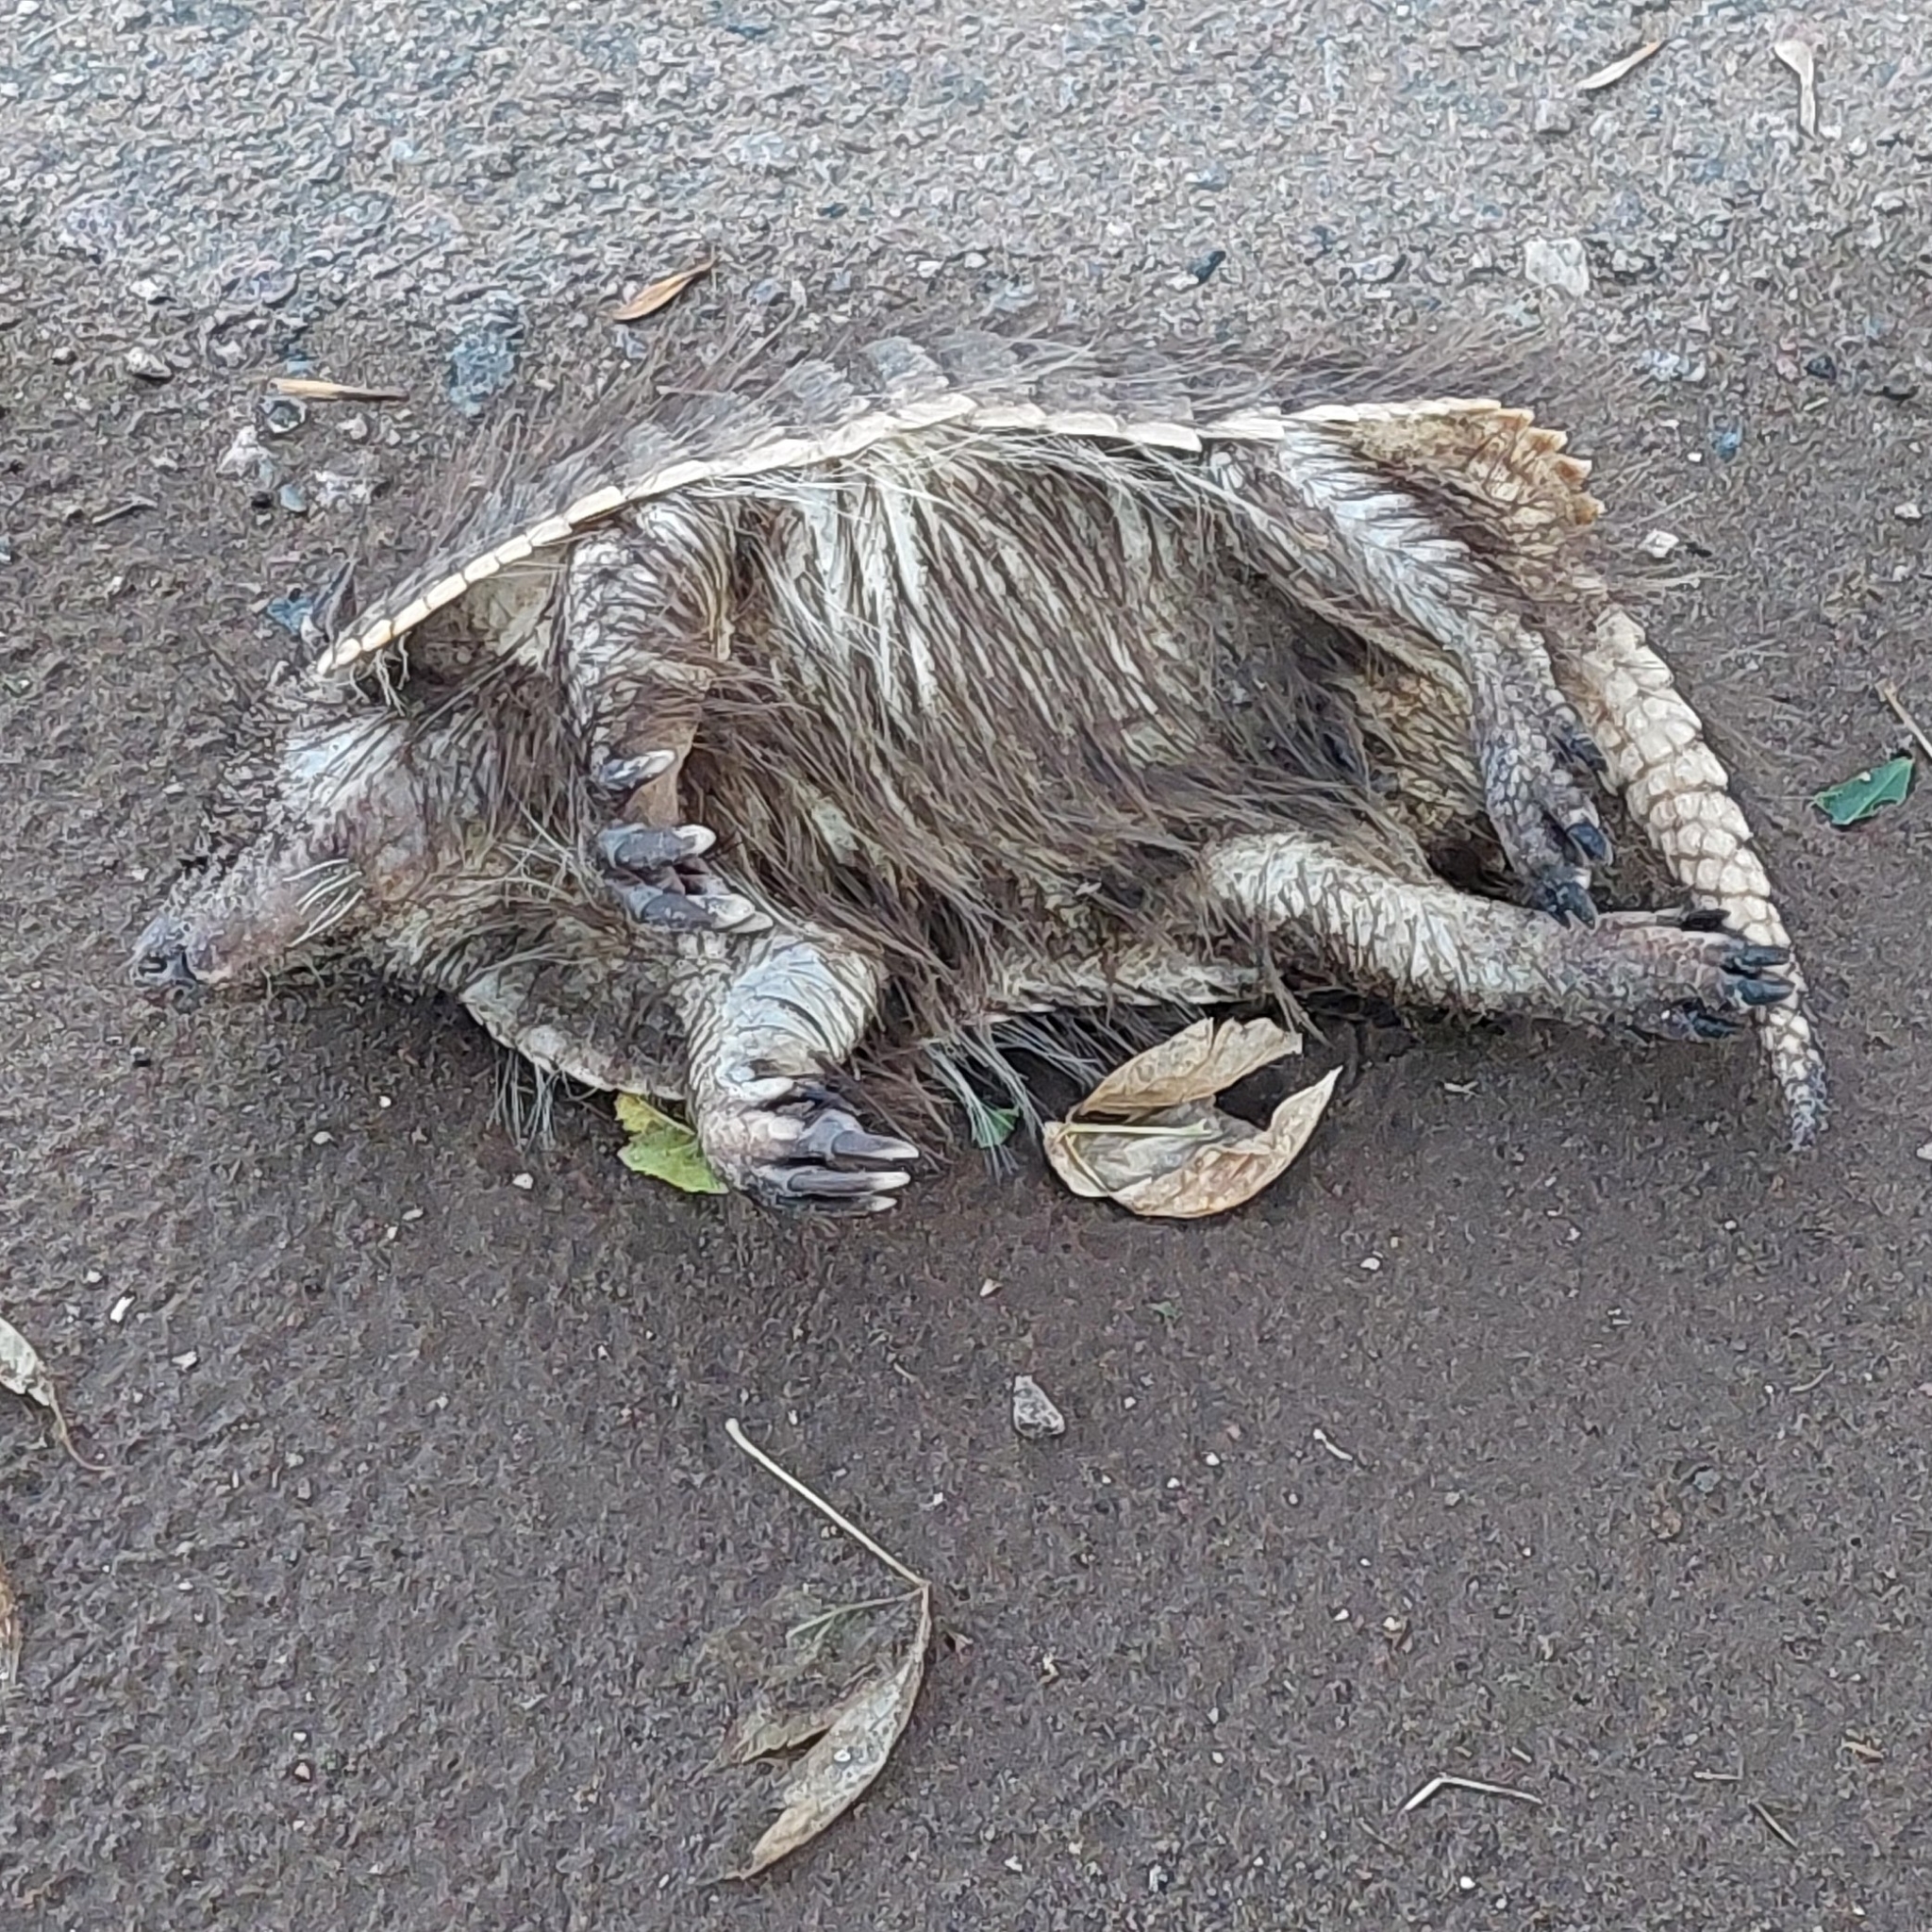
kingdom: Animalia
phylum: Chordata
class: Mammalia
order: Cingulata
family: Dasypodidae
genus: Chaetophractus
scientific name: Chaetophractus villosus
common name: Big hairy armadillo
